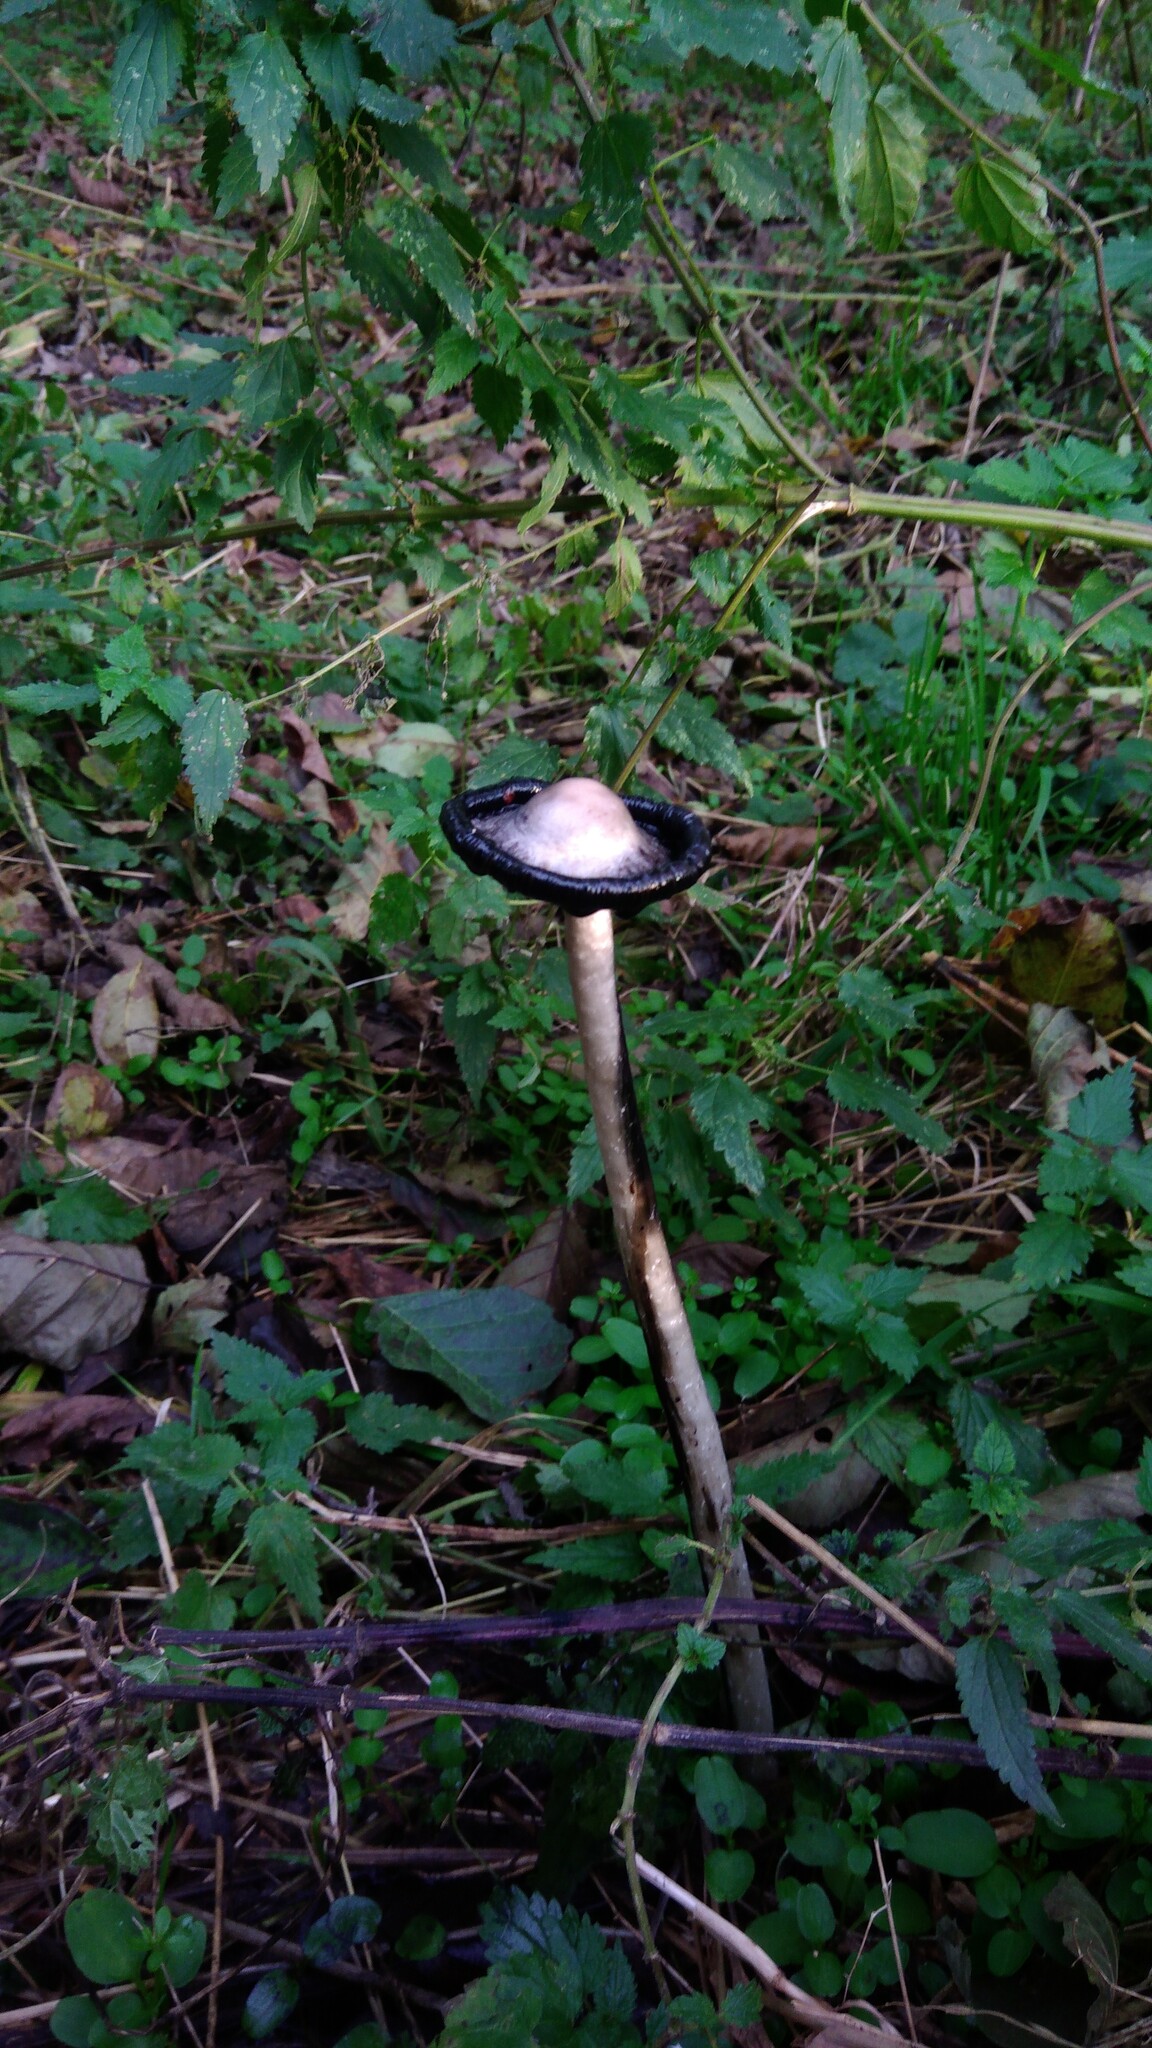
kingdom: Fungi
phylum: Basidiomycota
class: Agaricomycetes
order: Agaricales
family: Agaricaceae
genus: Coprinus
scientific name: Coprinus comatus
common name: Lawyer's wig
